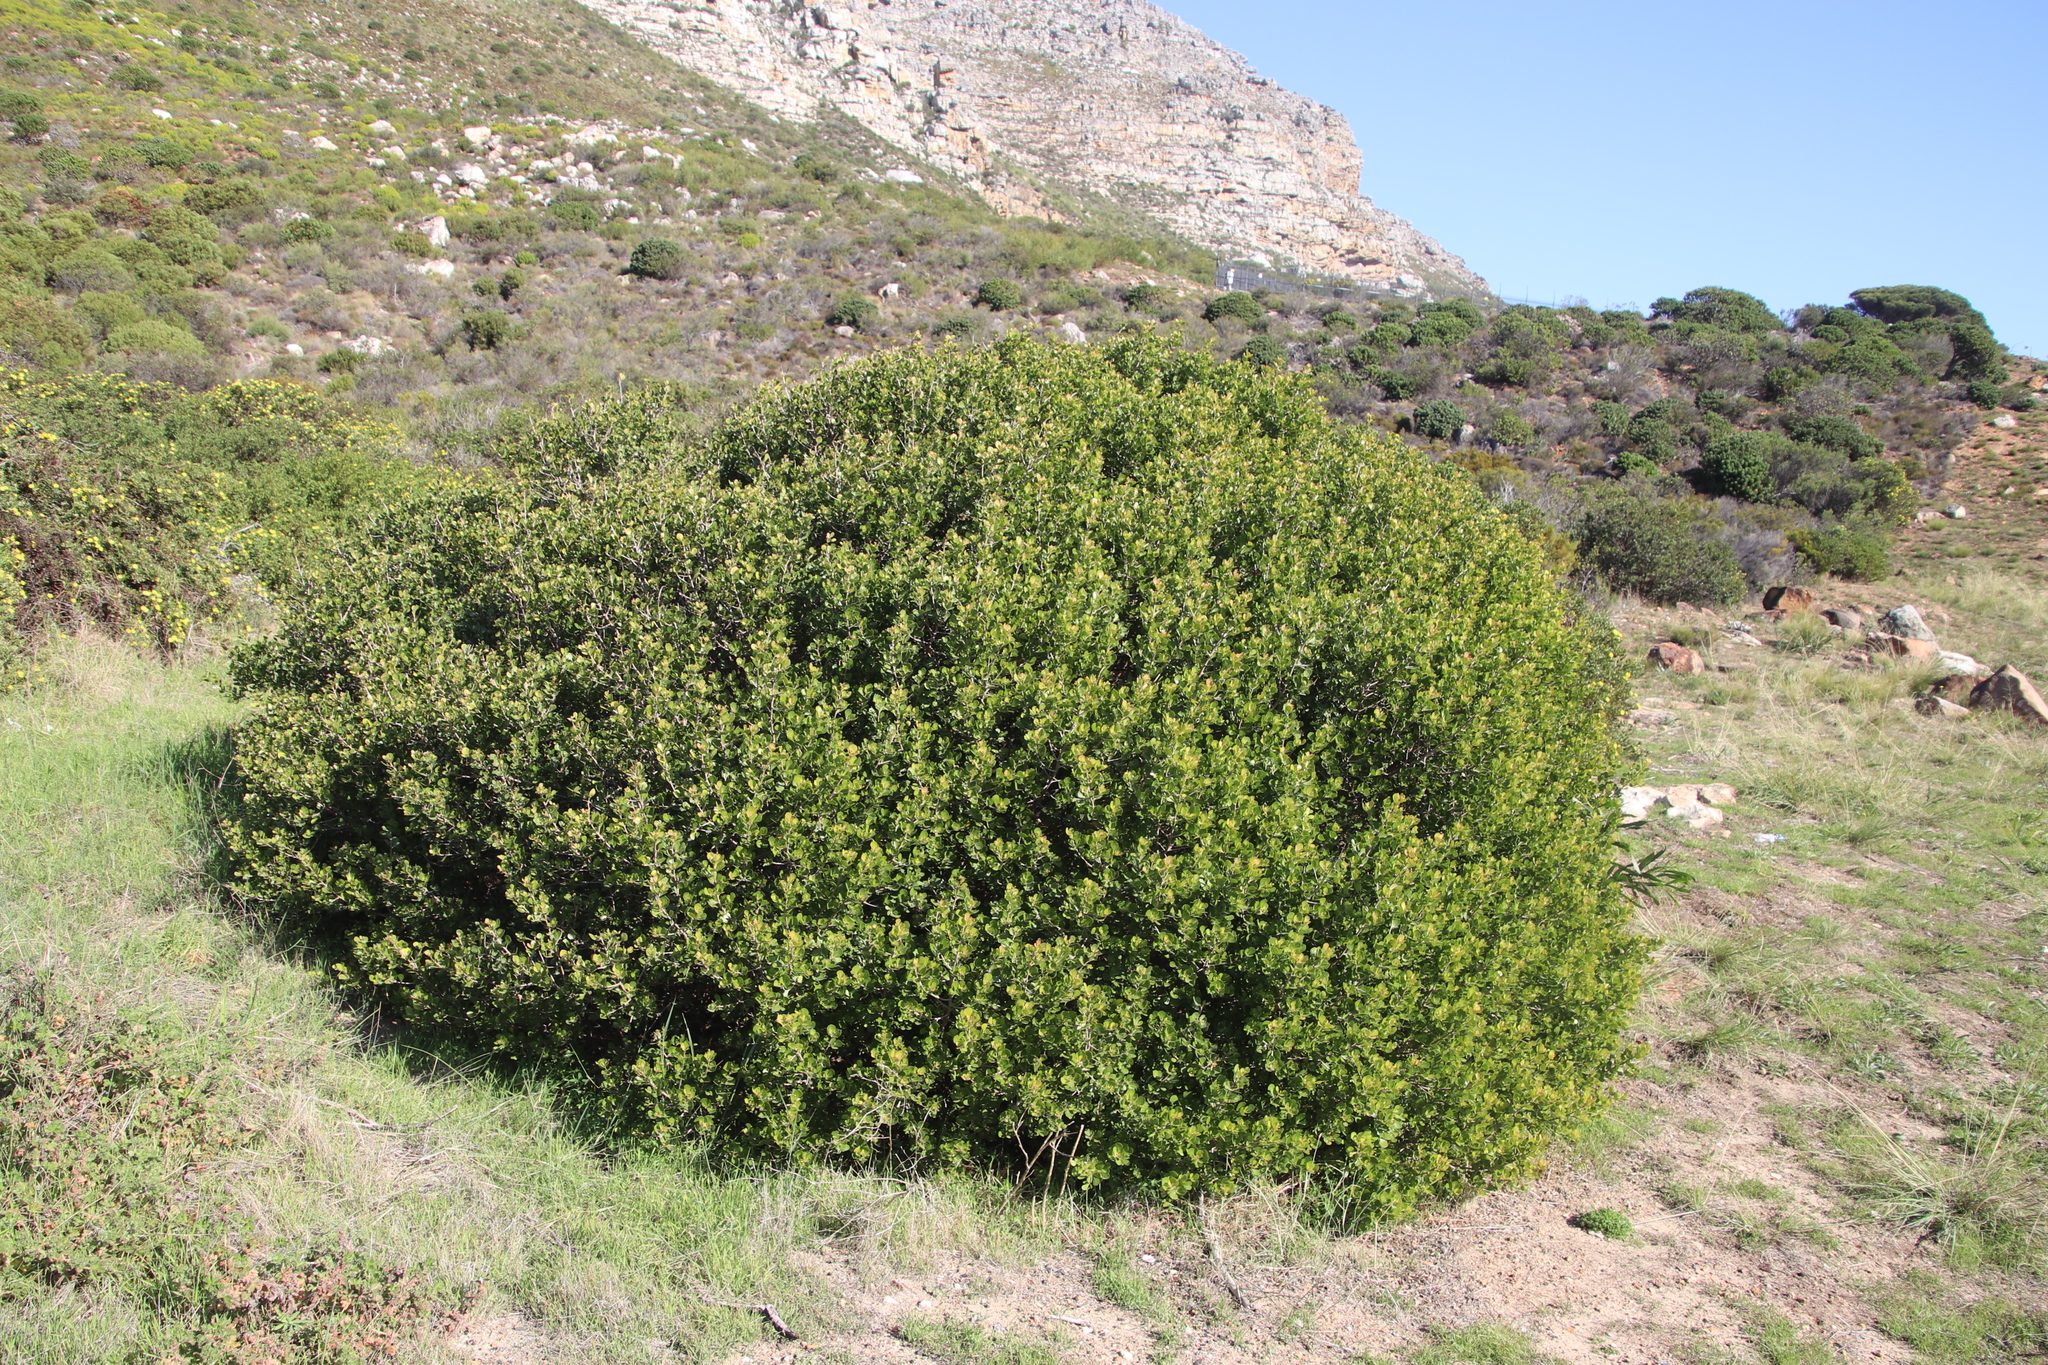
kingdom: Plantae
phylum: Tracheophyta
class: Magnoliopsida
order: Sapindales
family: Anacardiaceae
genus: Searsia
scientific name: Searsia lucida
